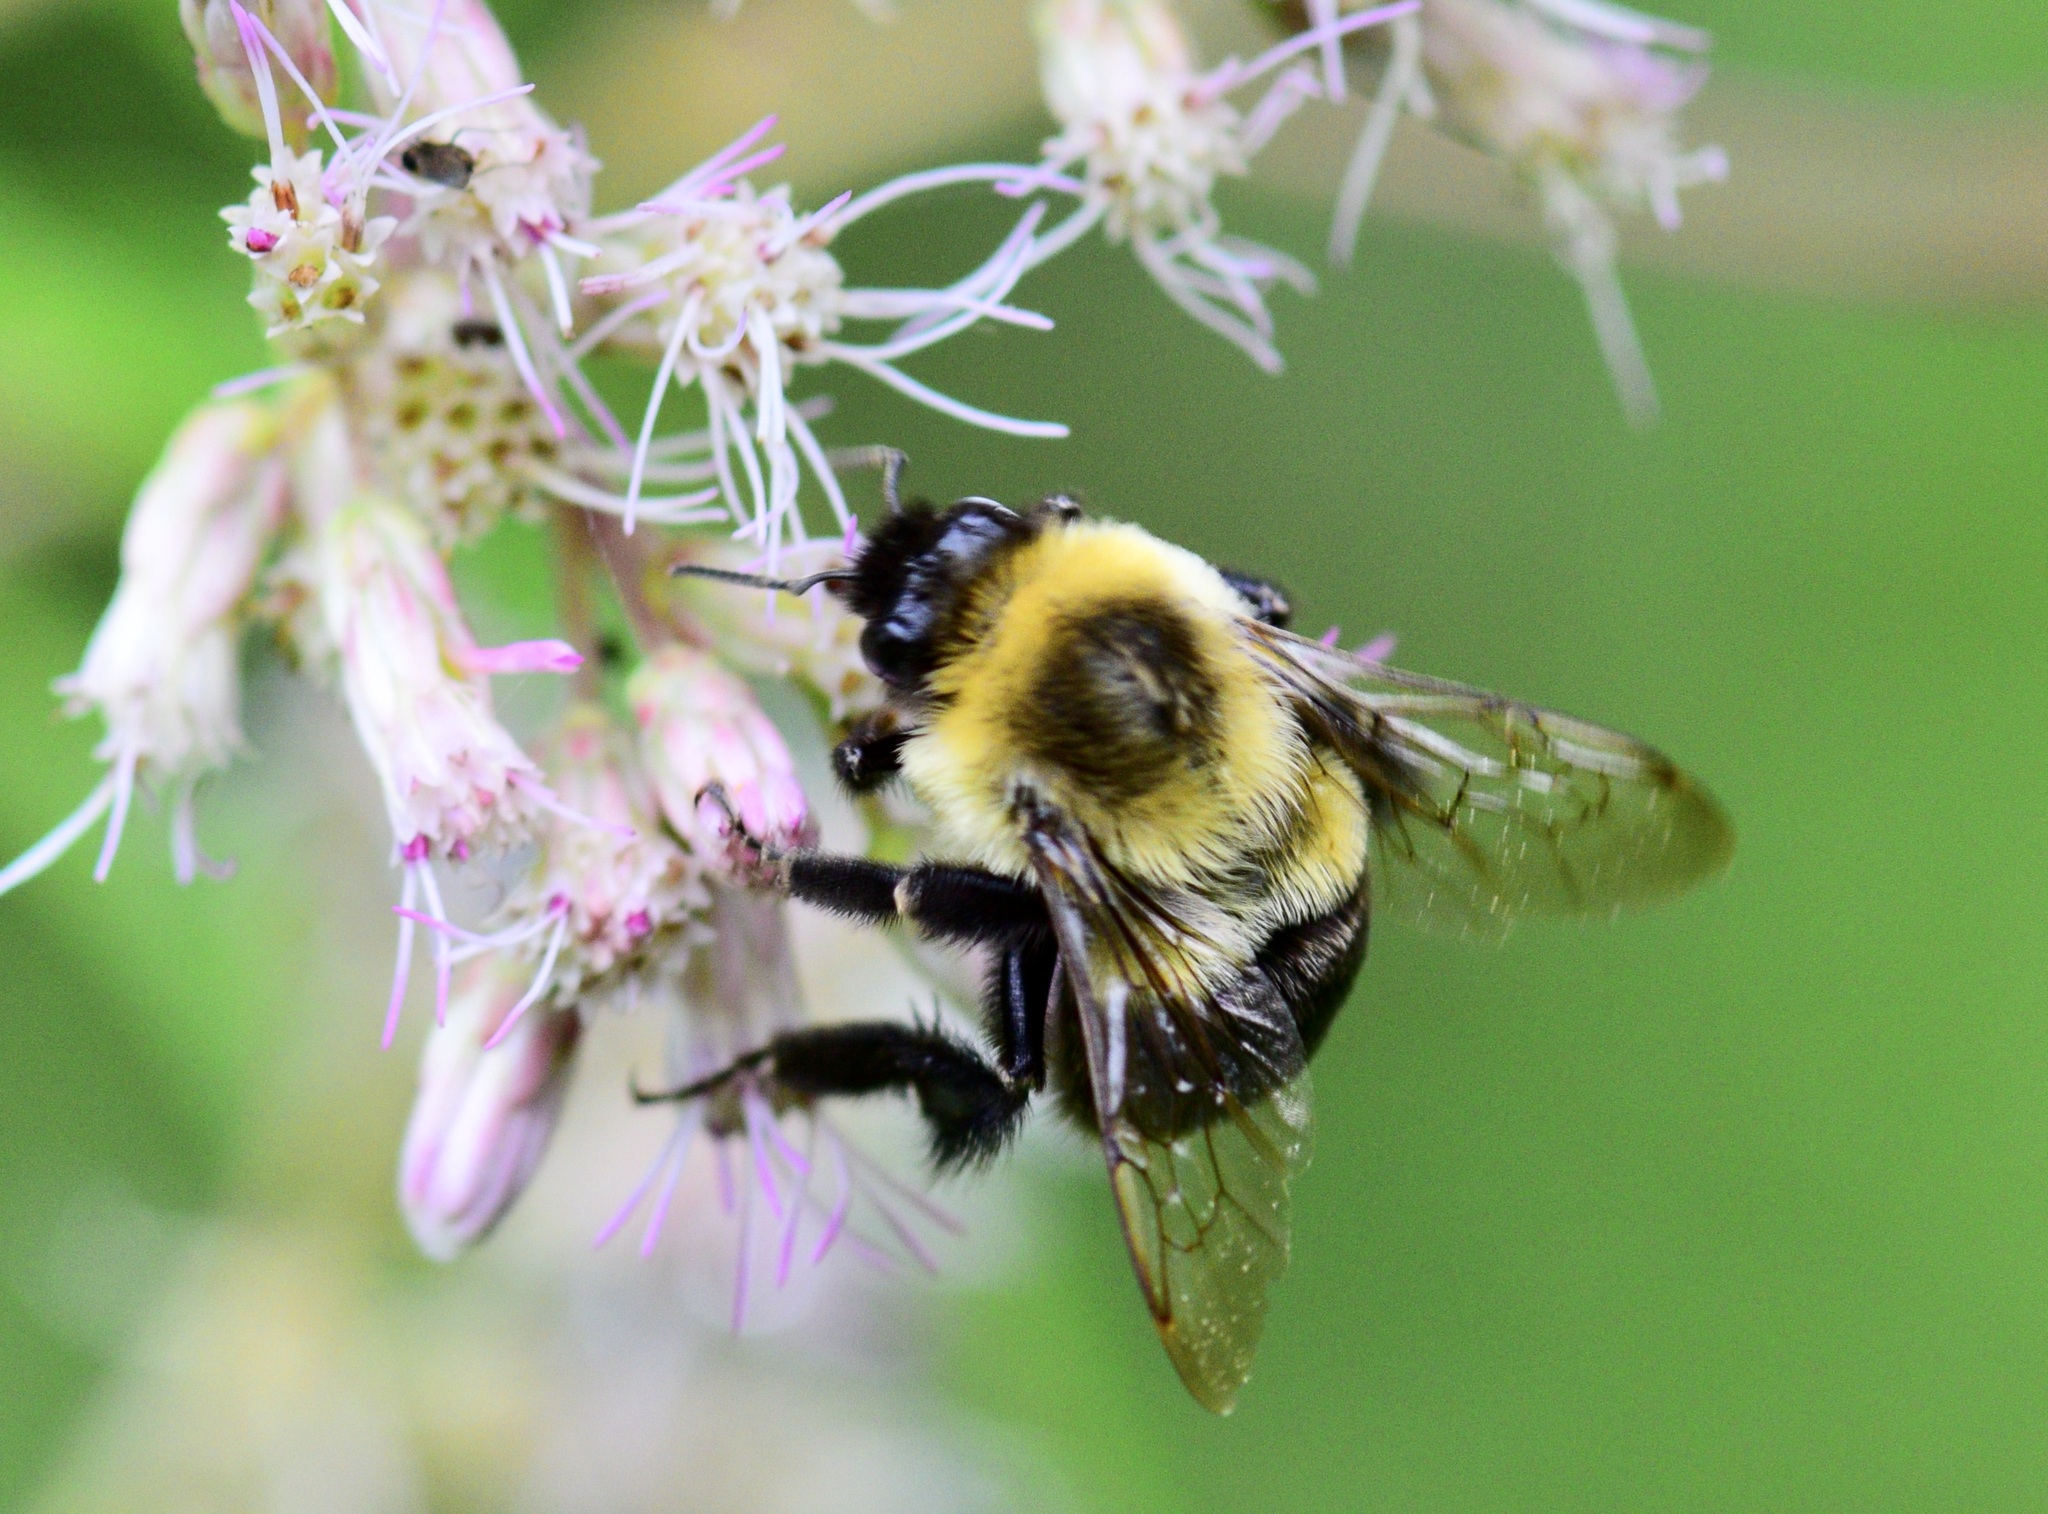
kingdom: Animalia
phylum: Arthropoda
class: Insecta
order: Hymenoptera
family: Apidae
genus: Bombus
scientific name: Bombus impatiens
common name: Common eastern bumble bee
